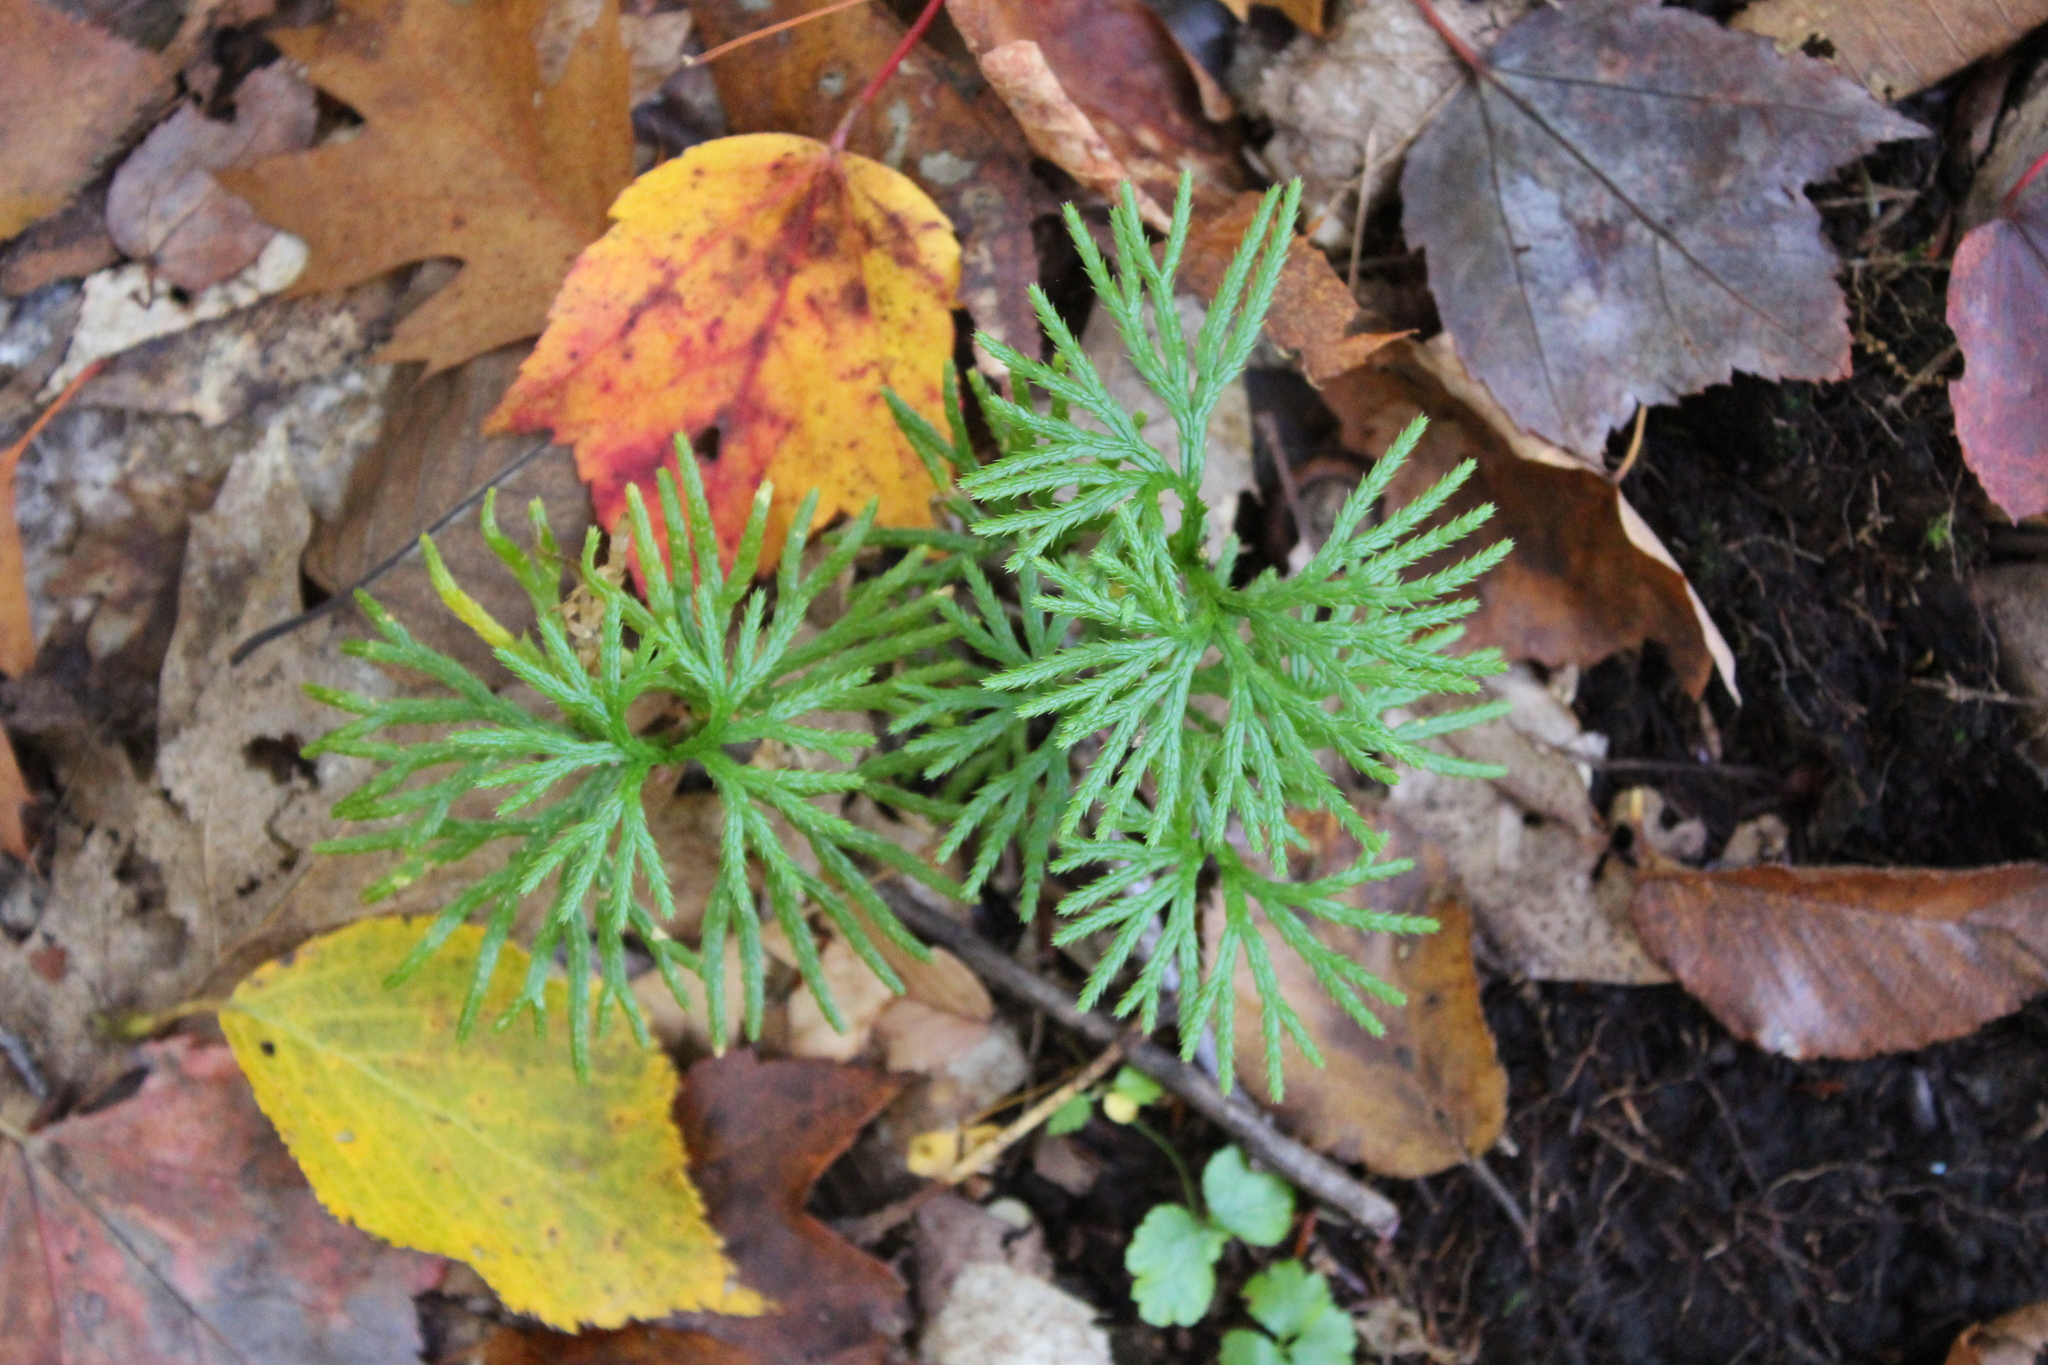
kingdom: Plantae
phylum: Tracheophyta
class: Lycopodiopsida
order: Lycopodiales
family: Lycopodiaceae
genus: Diphasiastrum
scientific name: Diphasiastrum digitatum
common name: Southern running-pine
